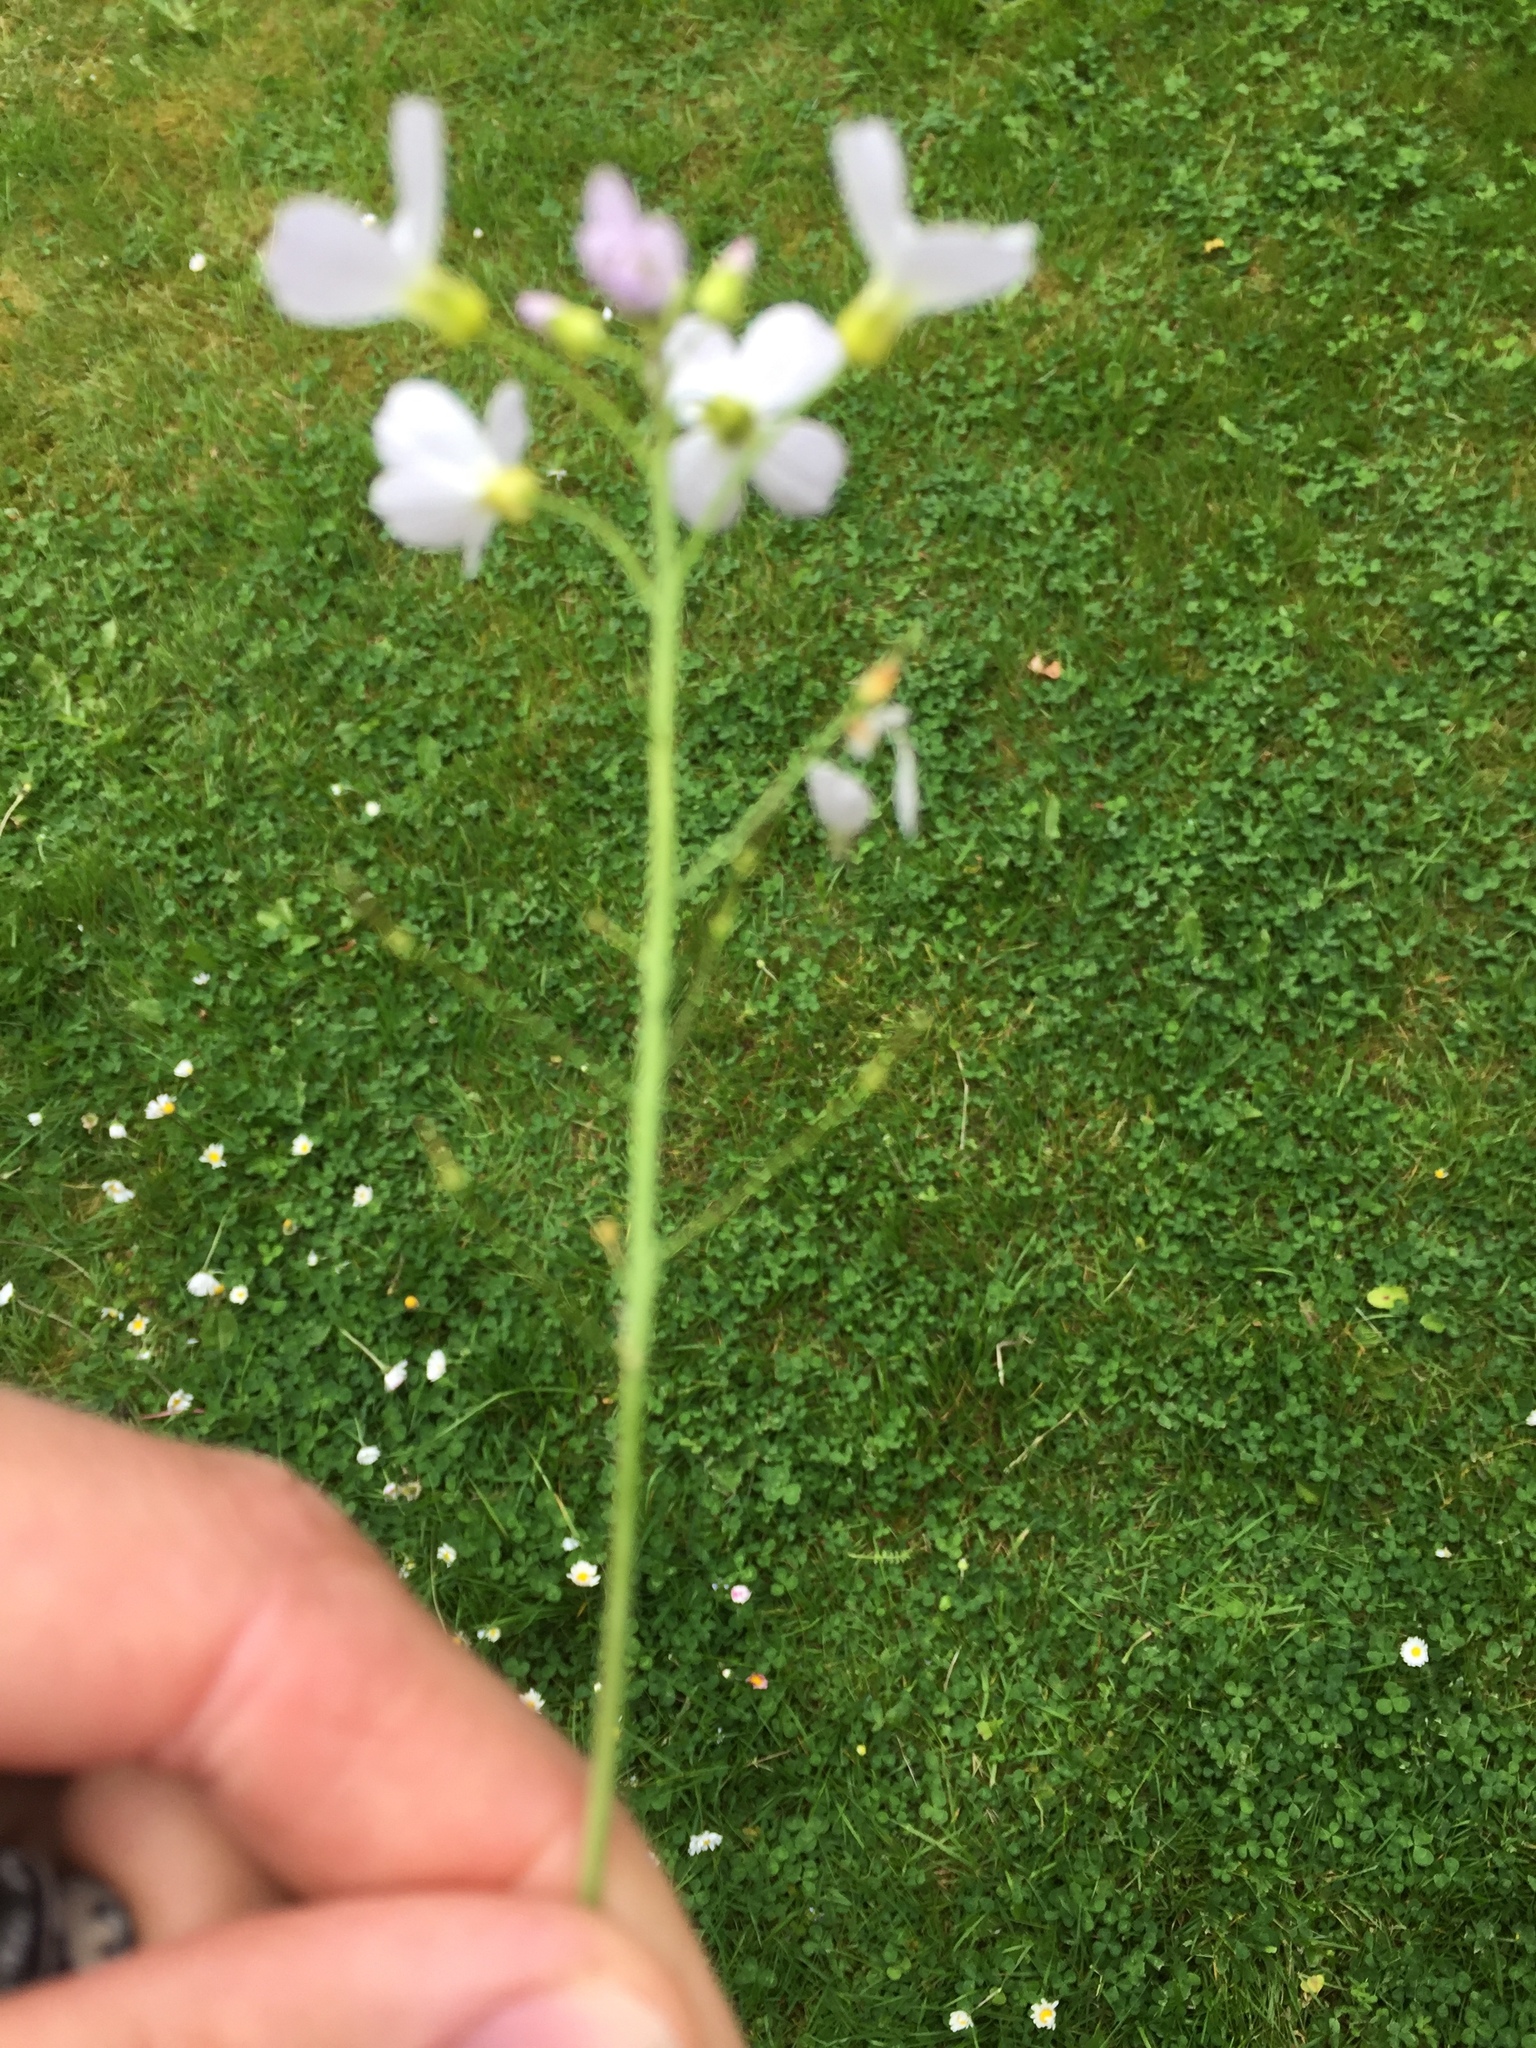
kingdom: Plantae
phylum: Tracheophyta
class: Magnoliopsida
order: Brassicales
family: Brassicaceae
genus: Cardamine
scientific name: Cardamine pratensis
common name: Cuckoo flower
